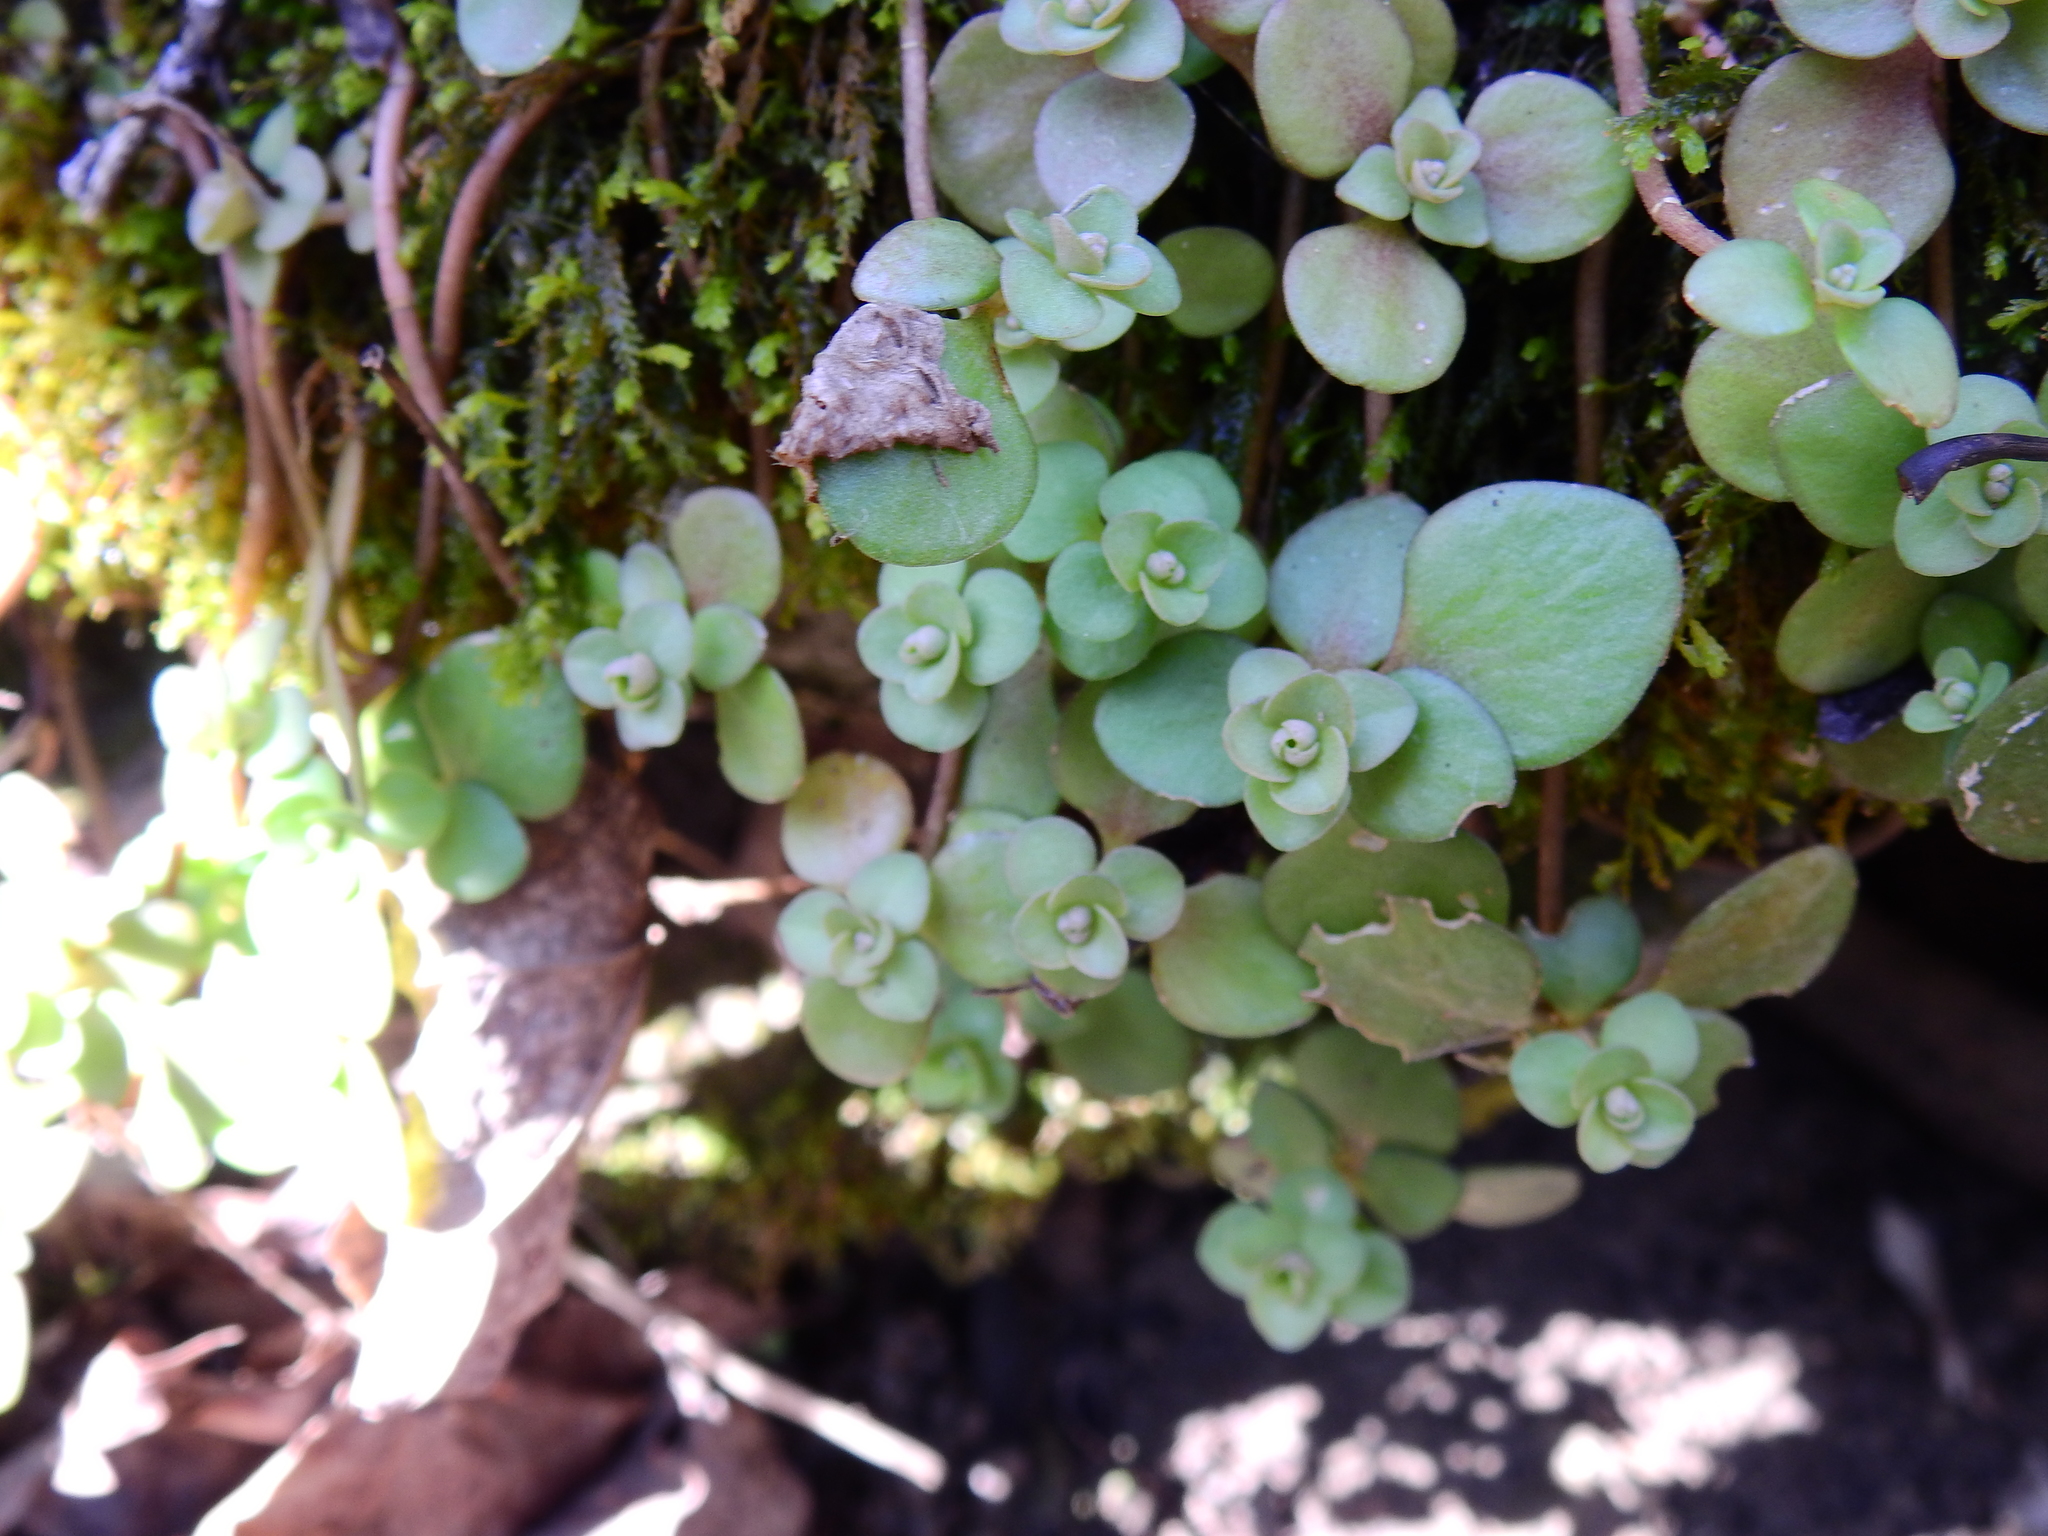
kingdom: Plantae
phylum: Tracheophyta
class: Magnoliopsida
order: Saxifragales
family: Crassulaceae
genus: Sedum
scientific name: Sedum ternatum
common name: Wild stonecrop
